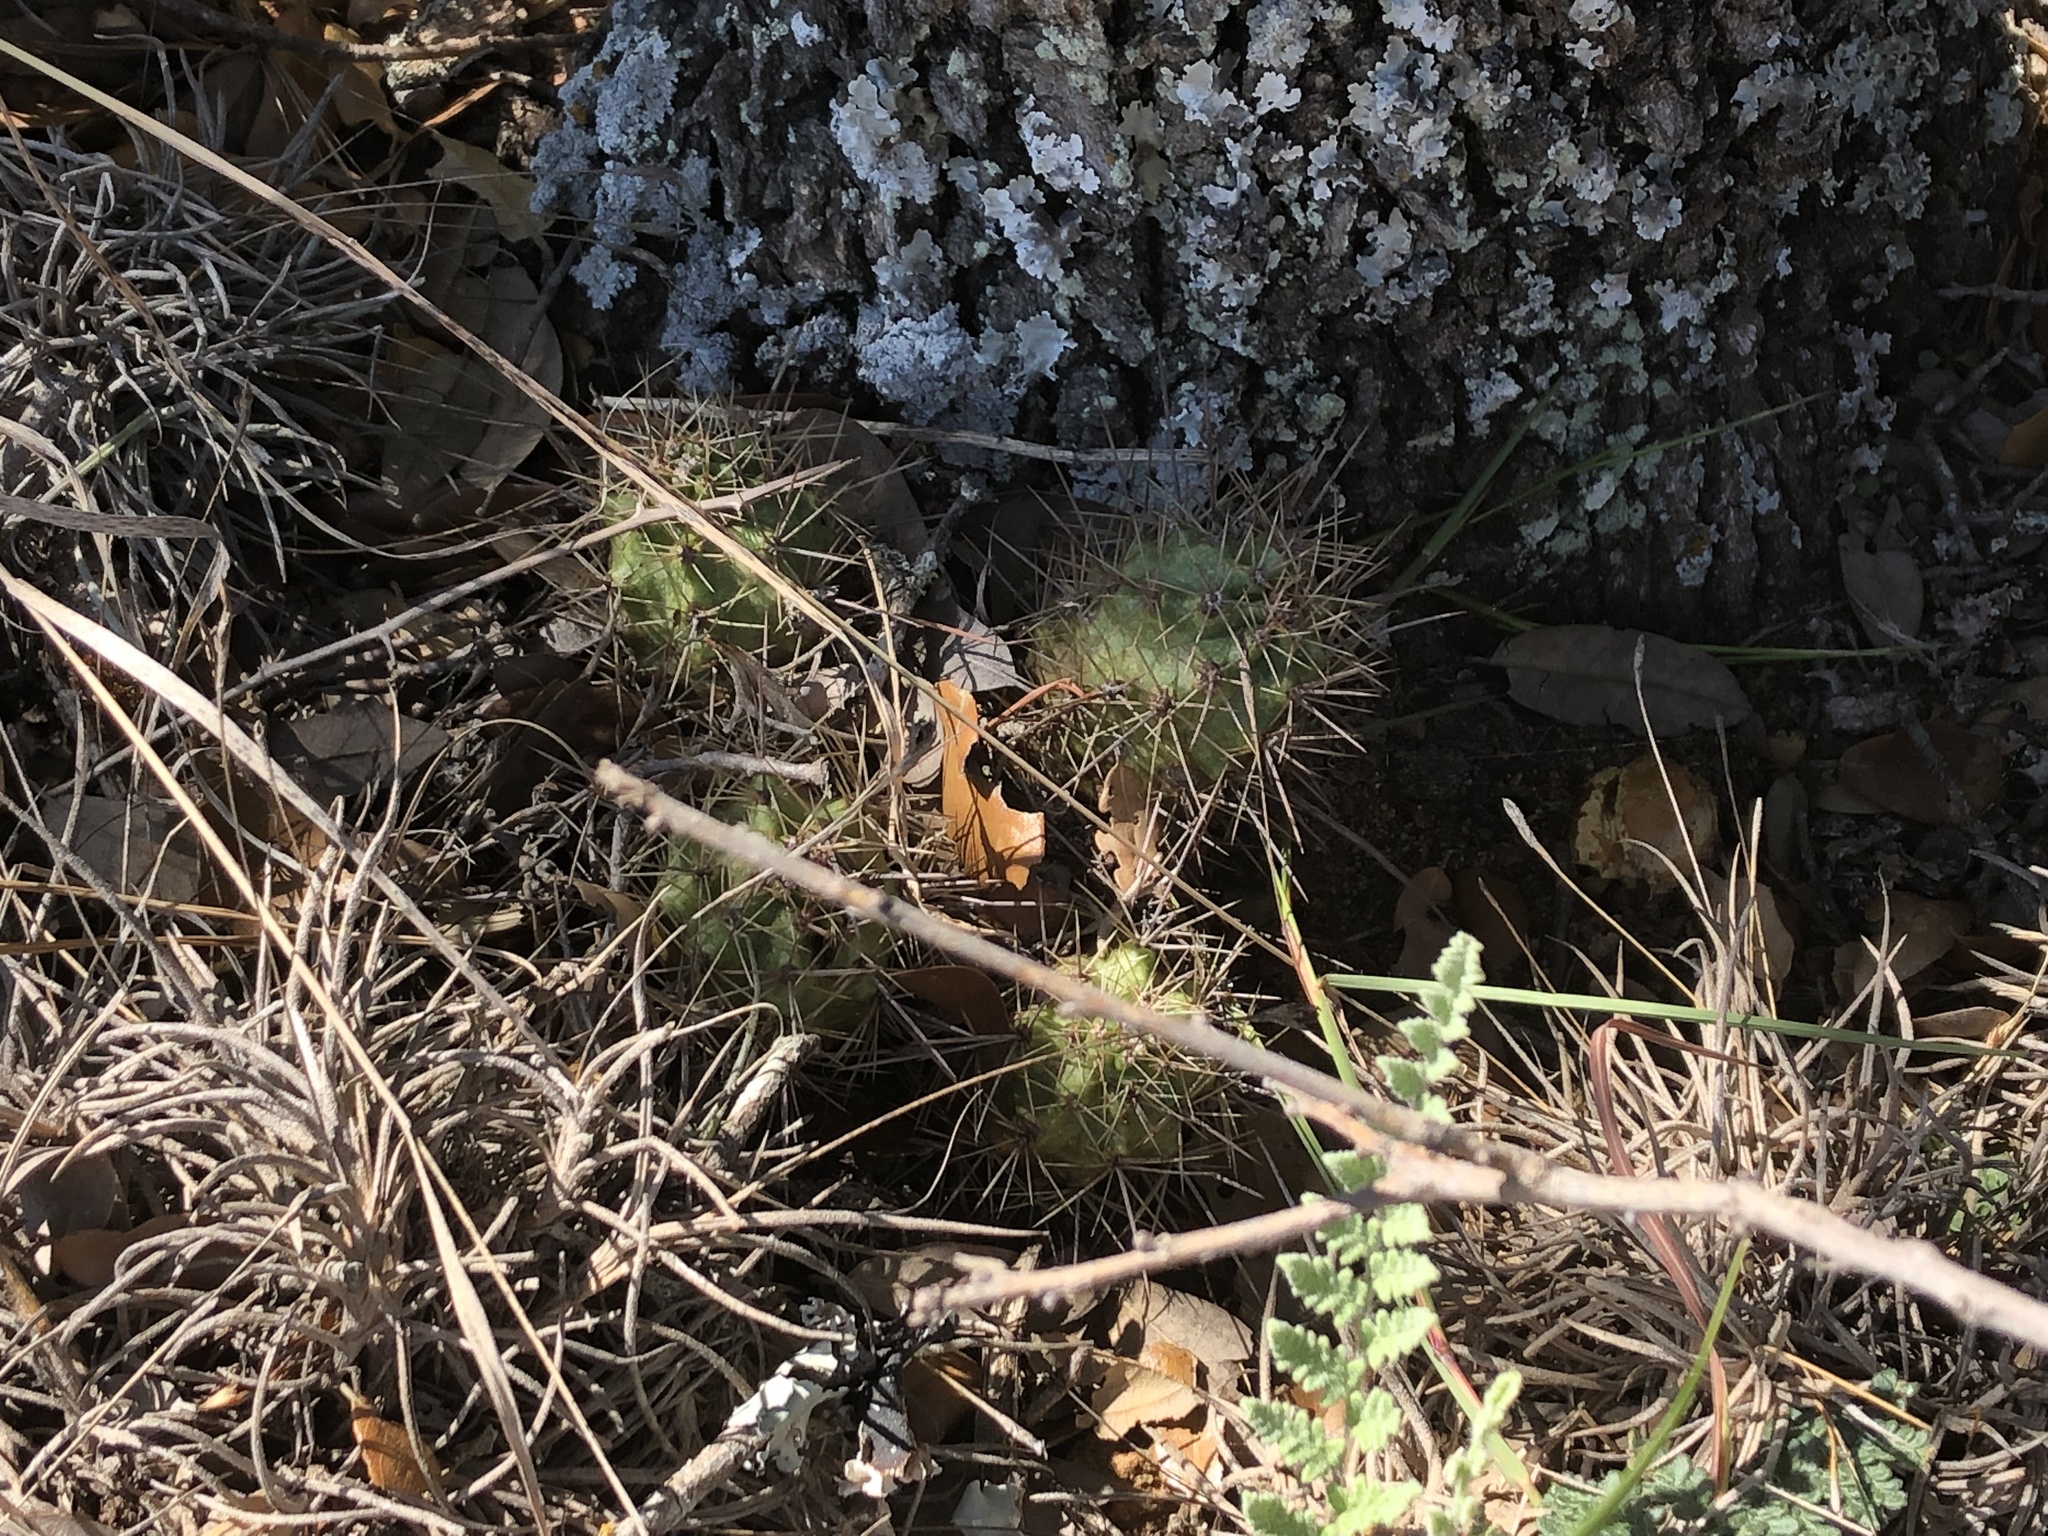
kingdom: Plantae
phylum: Tracheophyta
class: Magnoliopsida
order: Caryophyllales
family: Cactaceae
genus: Echinocereus
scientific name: Echinocereus coccineus
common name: Scarlet hedgehog cactus
